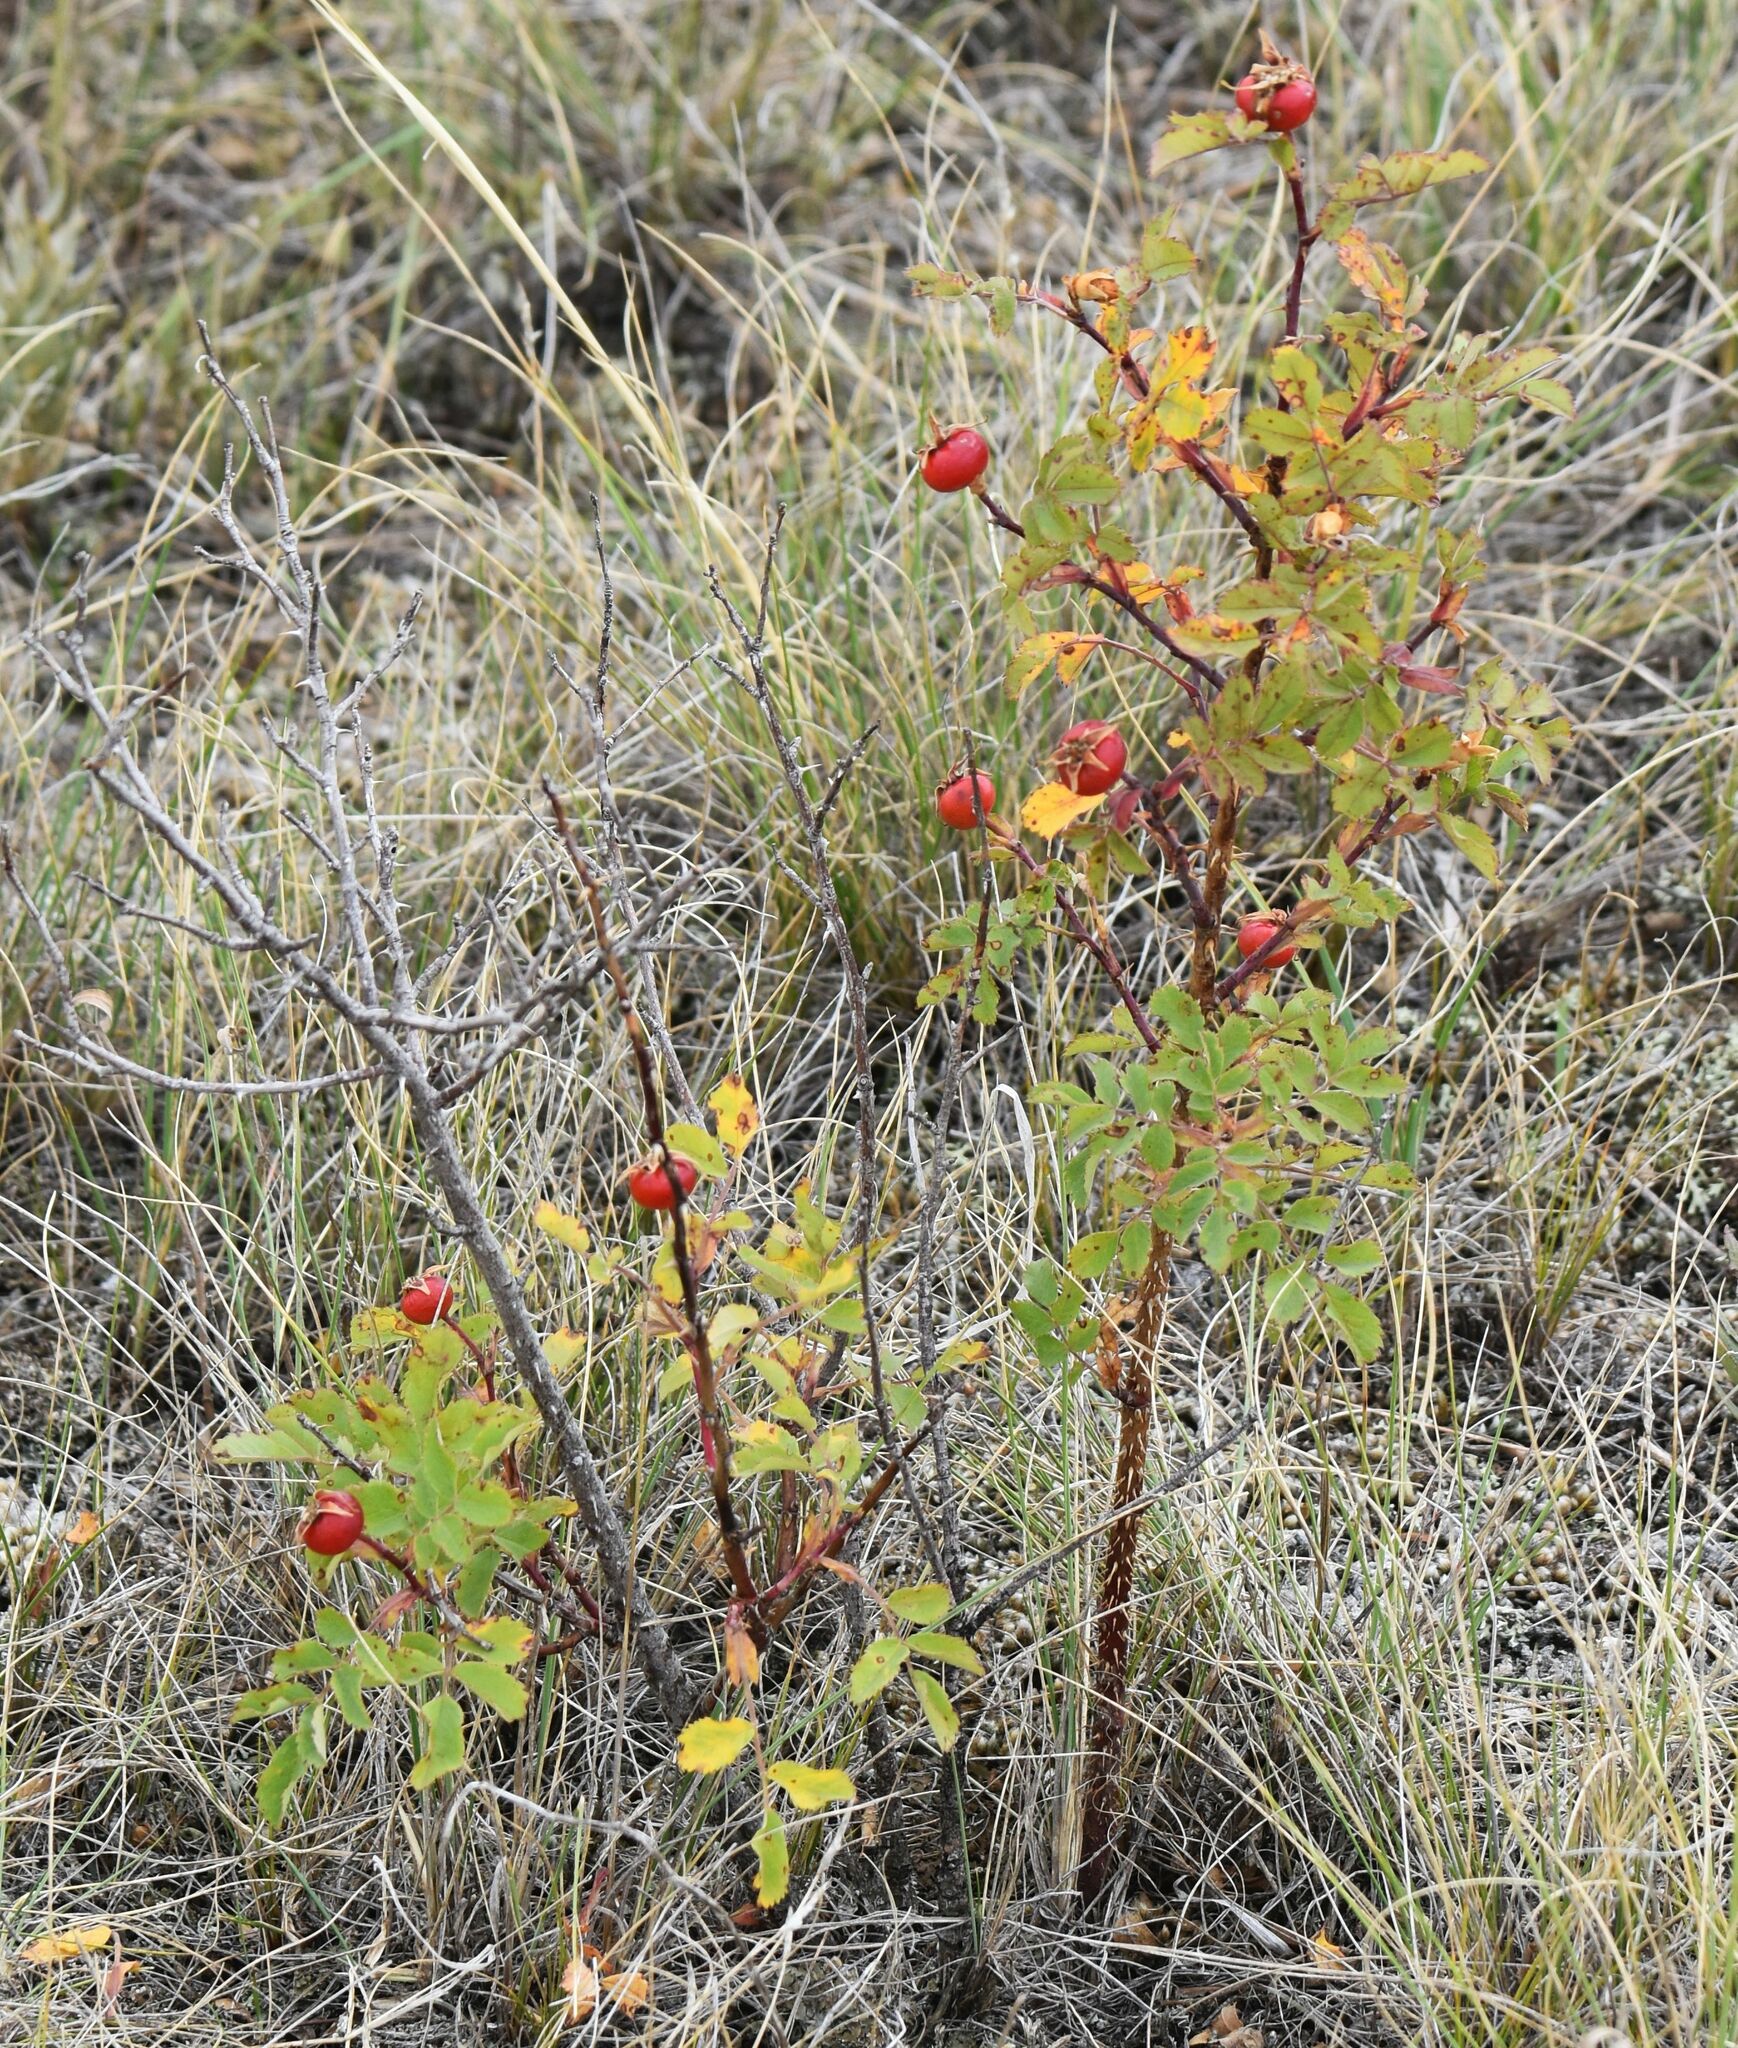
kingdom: Plantae
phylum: Tracheophyta
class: Magnoliopsida
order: Rosales
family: Rosaceae
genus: Rosa
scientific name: Rosa woodsii
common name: Woods's rose
